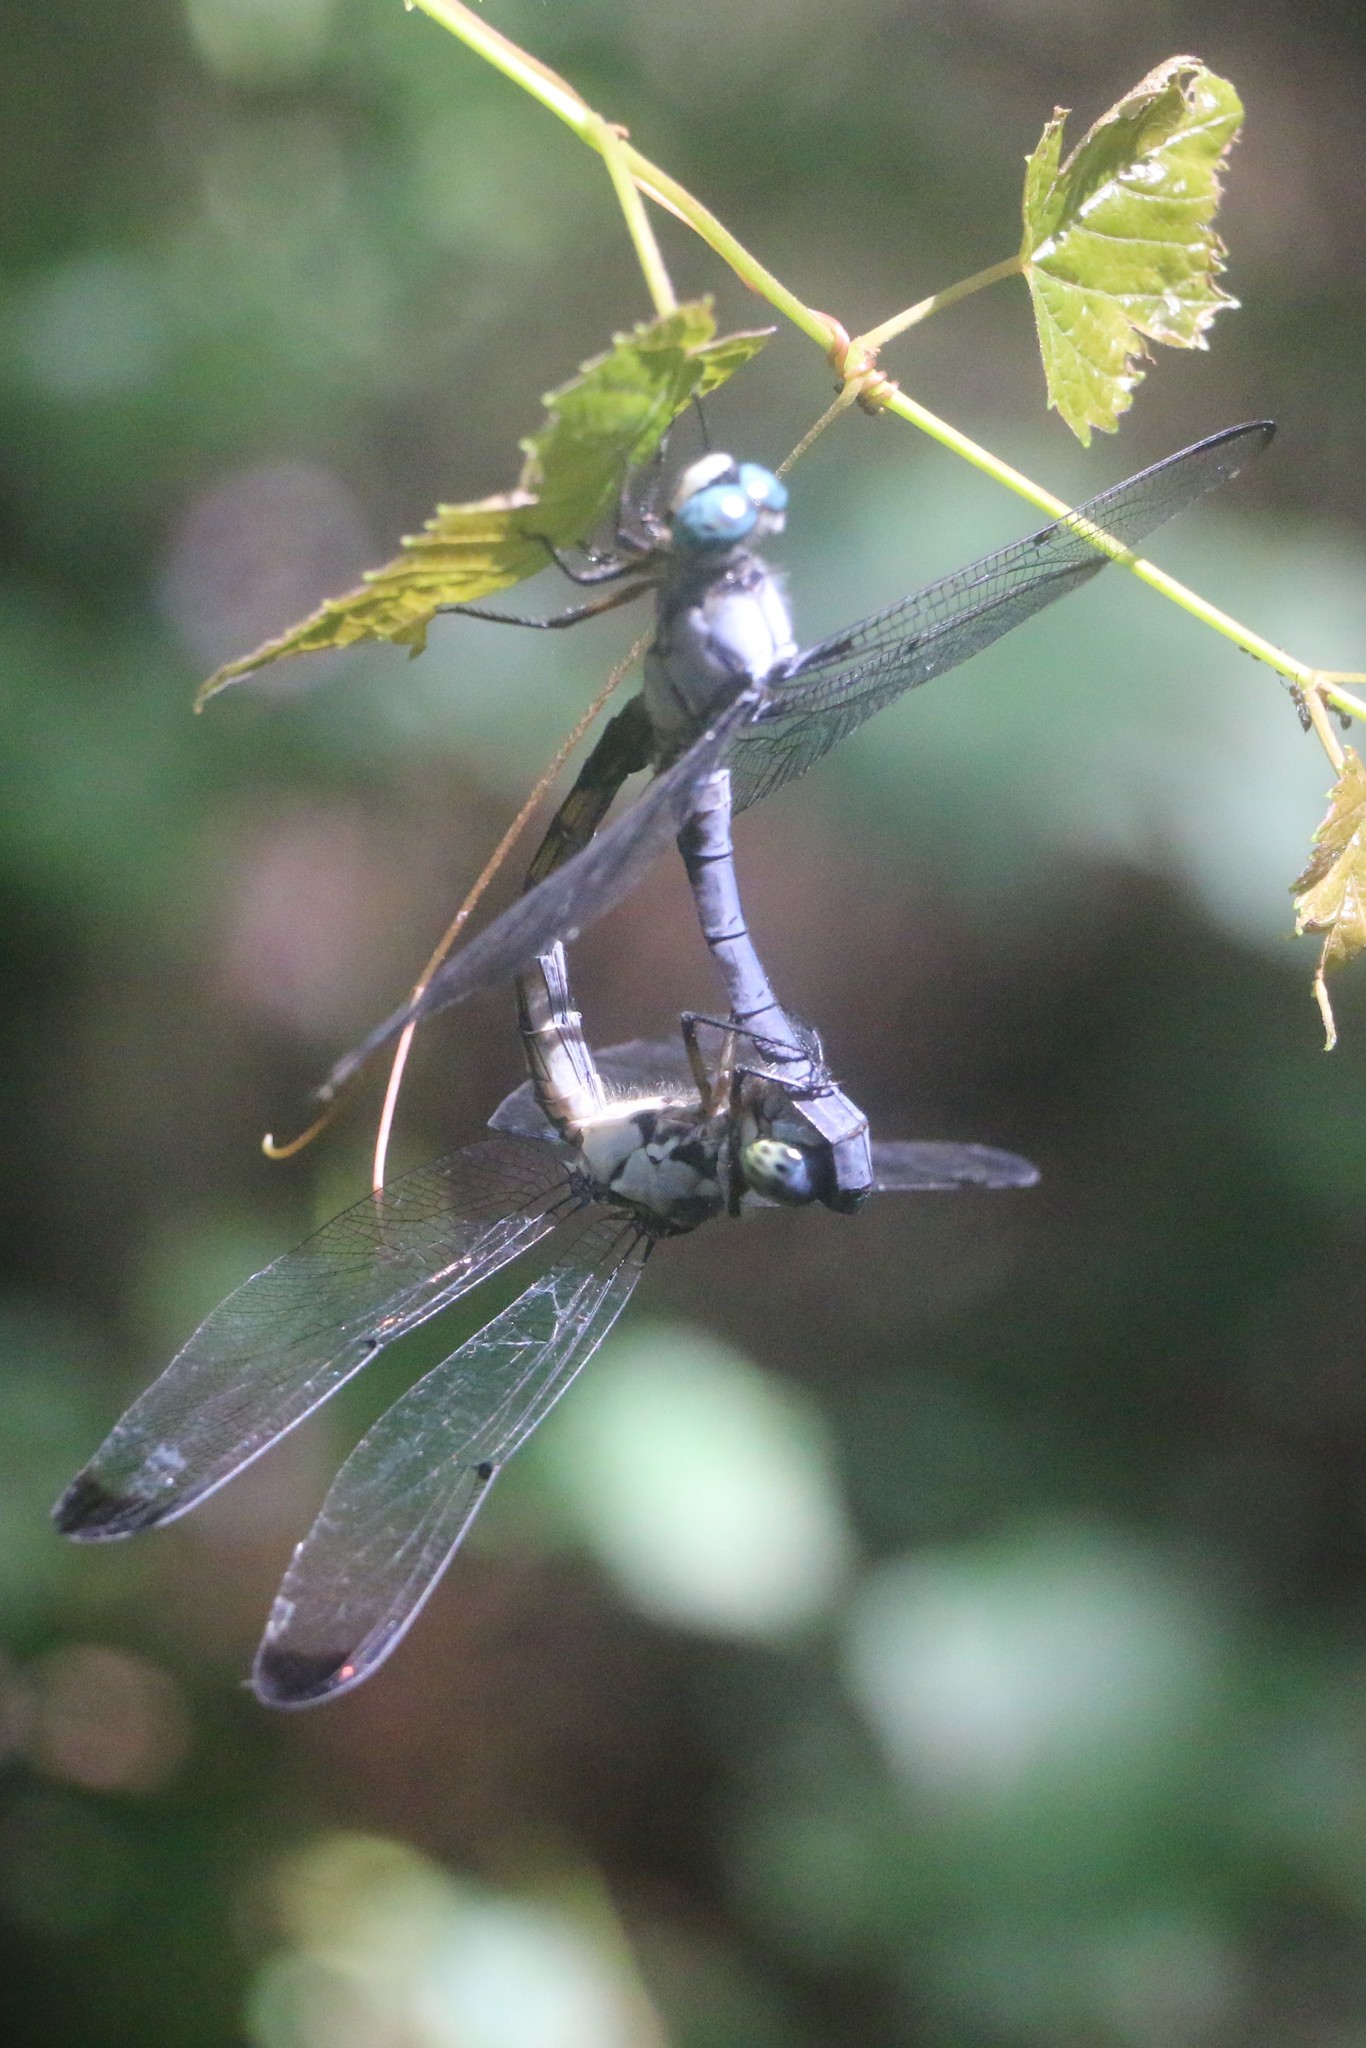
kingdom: Animalia
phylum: Arthropoda
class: Insecta
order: Odonata
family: Libellulidae
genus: Libellula
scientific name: Libellula vibrans
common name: Great blue skimmer
